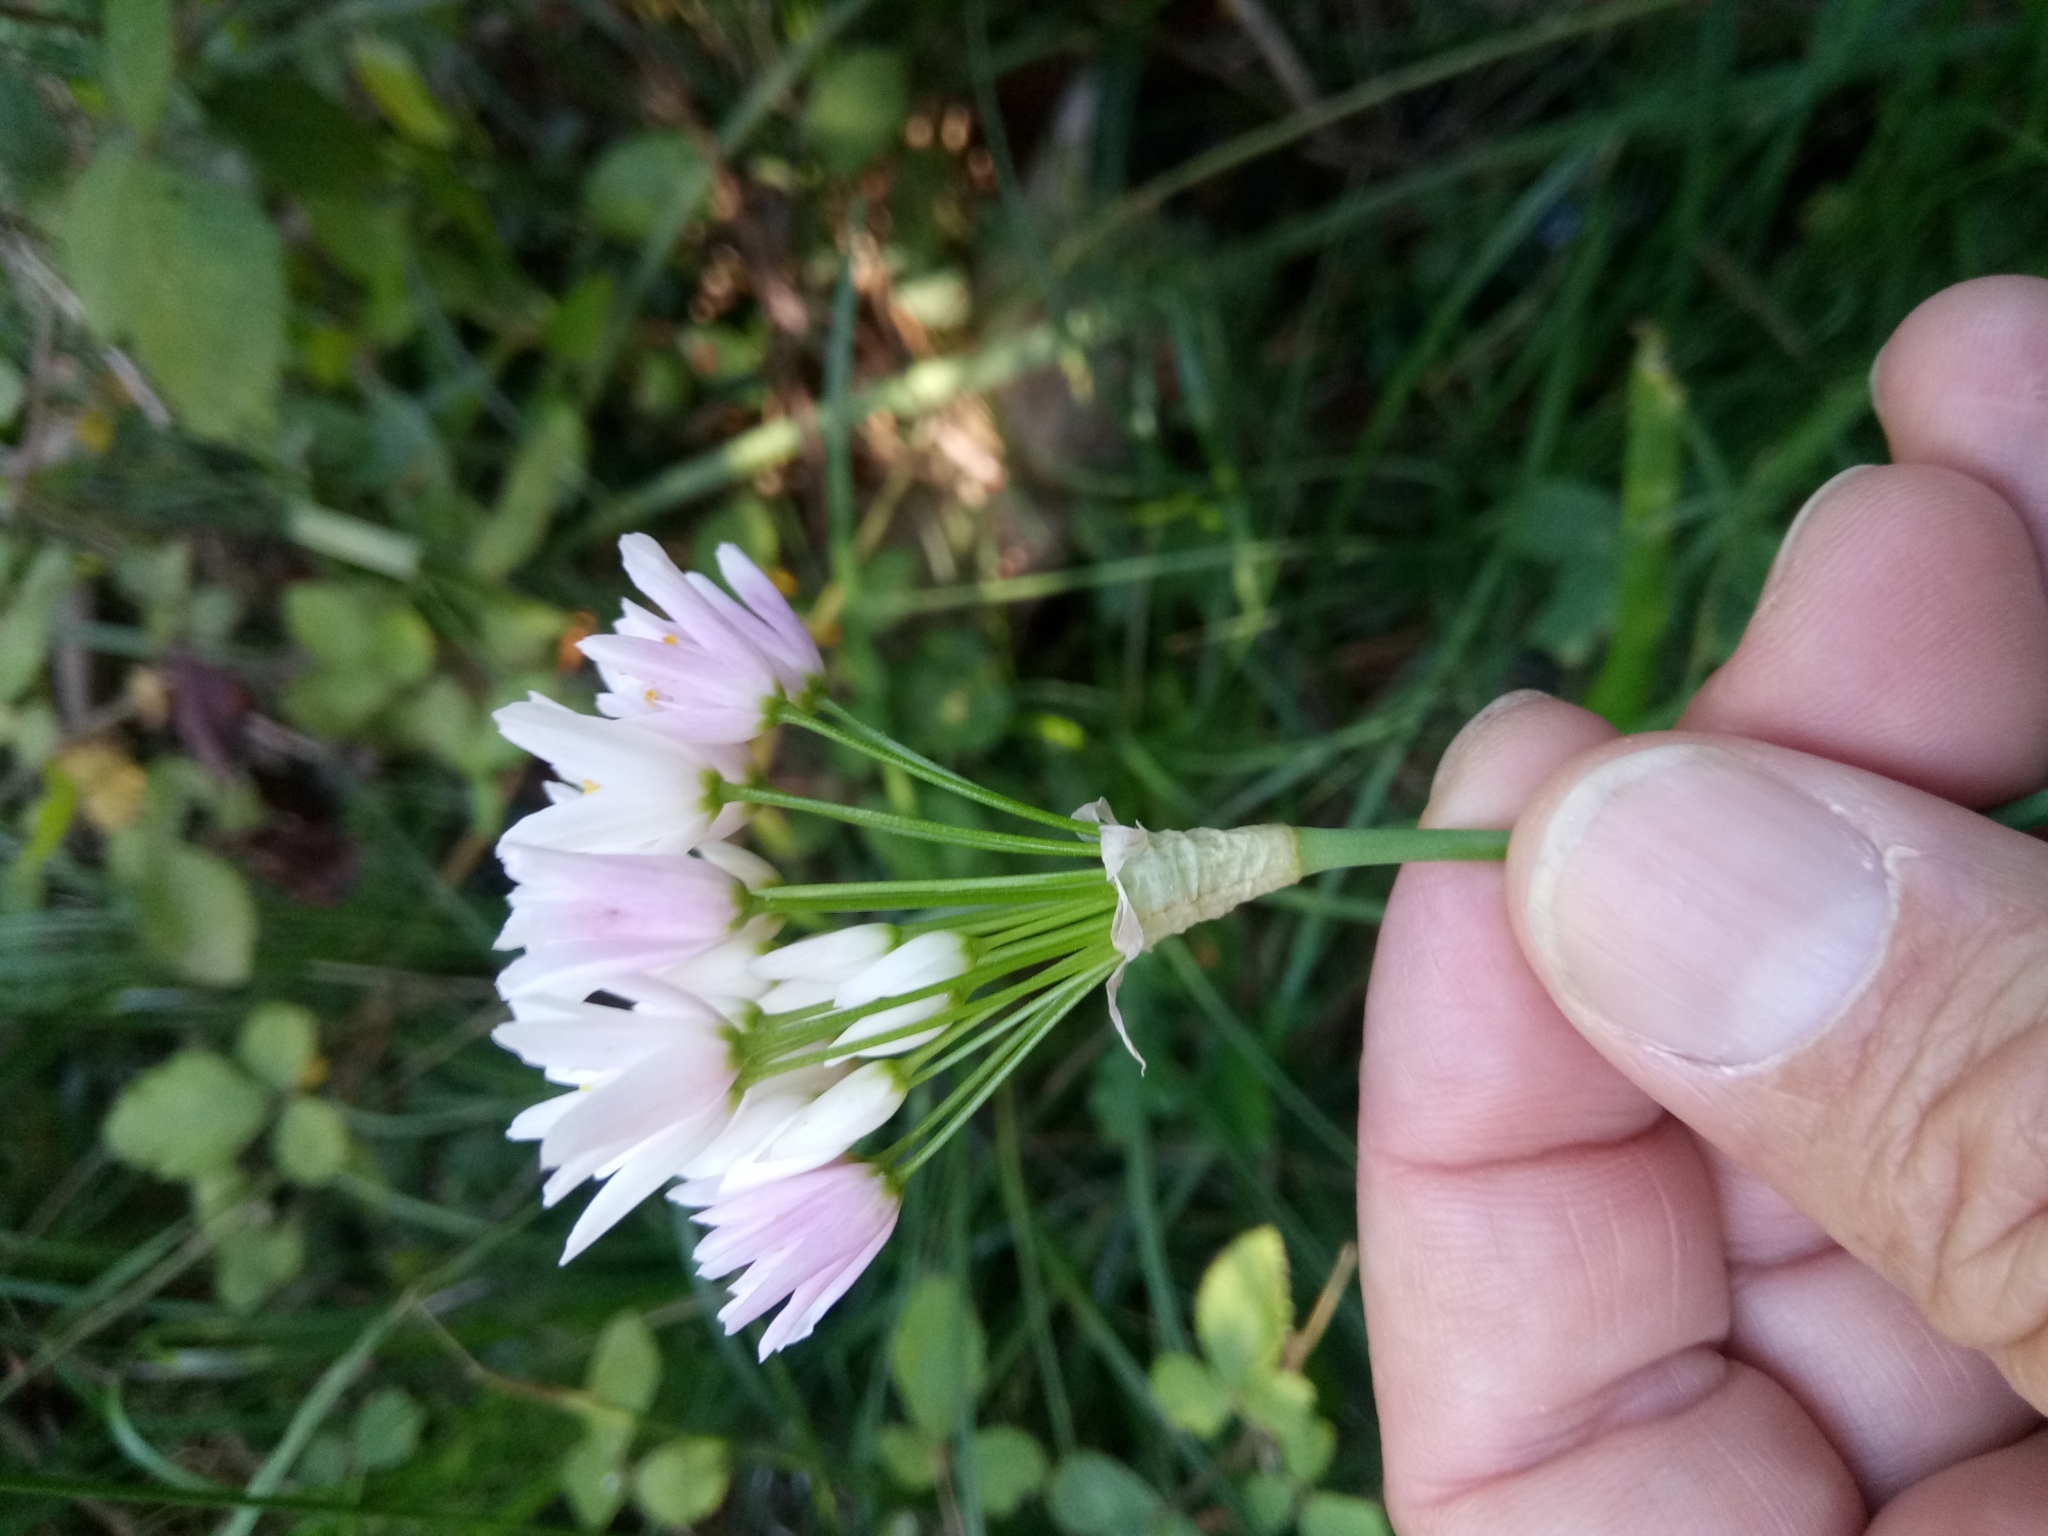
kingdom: Plantae
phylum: Tracheophyta
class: Liliopsida
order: Asparagales
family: Amaryllidaceae
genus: Allium
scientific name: Allium roseum
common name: Rosy garlic
